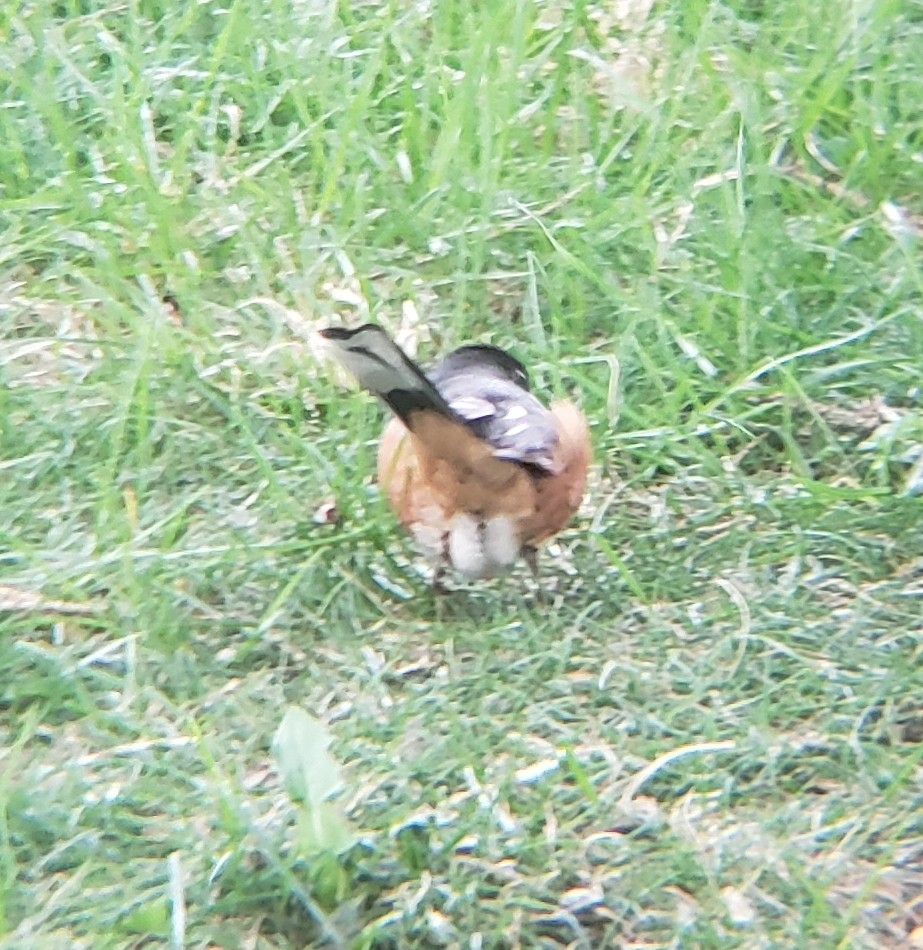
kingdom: Animalia
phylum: Chordata
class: Aves
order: Passeriformes
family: Passerellidae
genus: Pipilo
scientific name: Pipilo erythrophthalmus
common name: Eastern towhee
